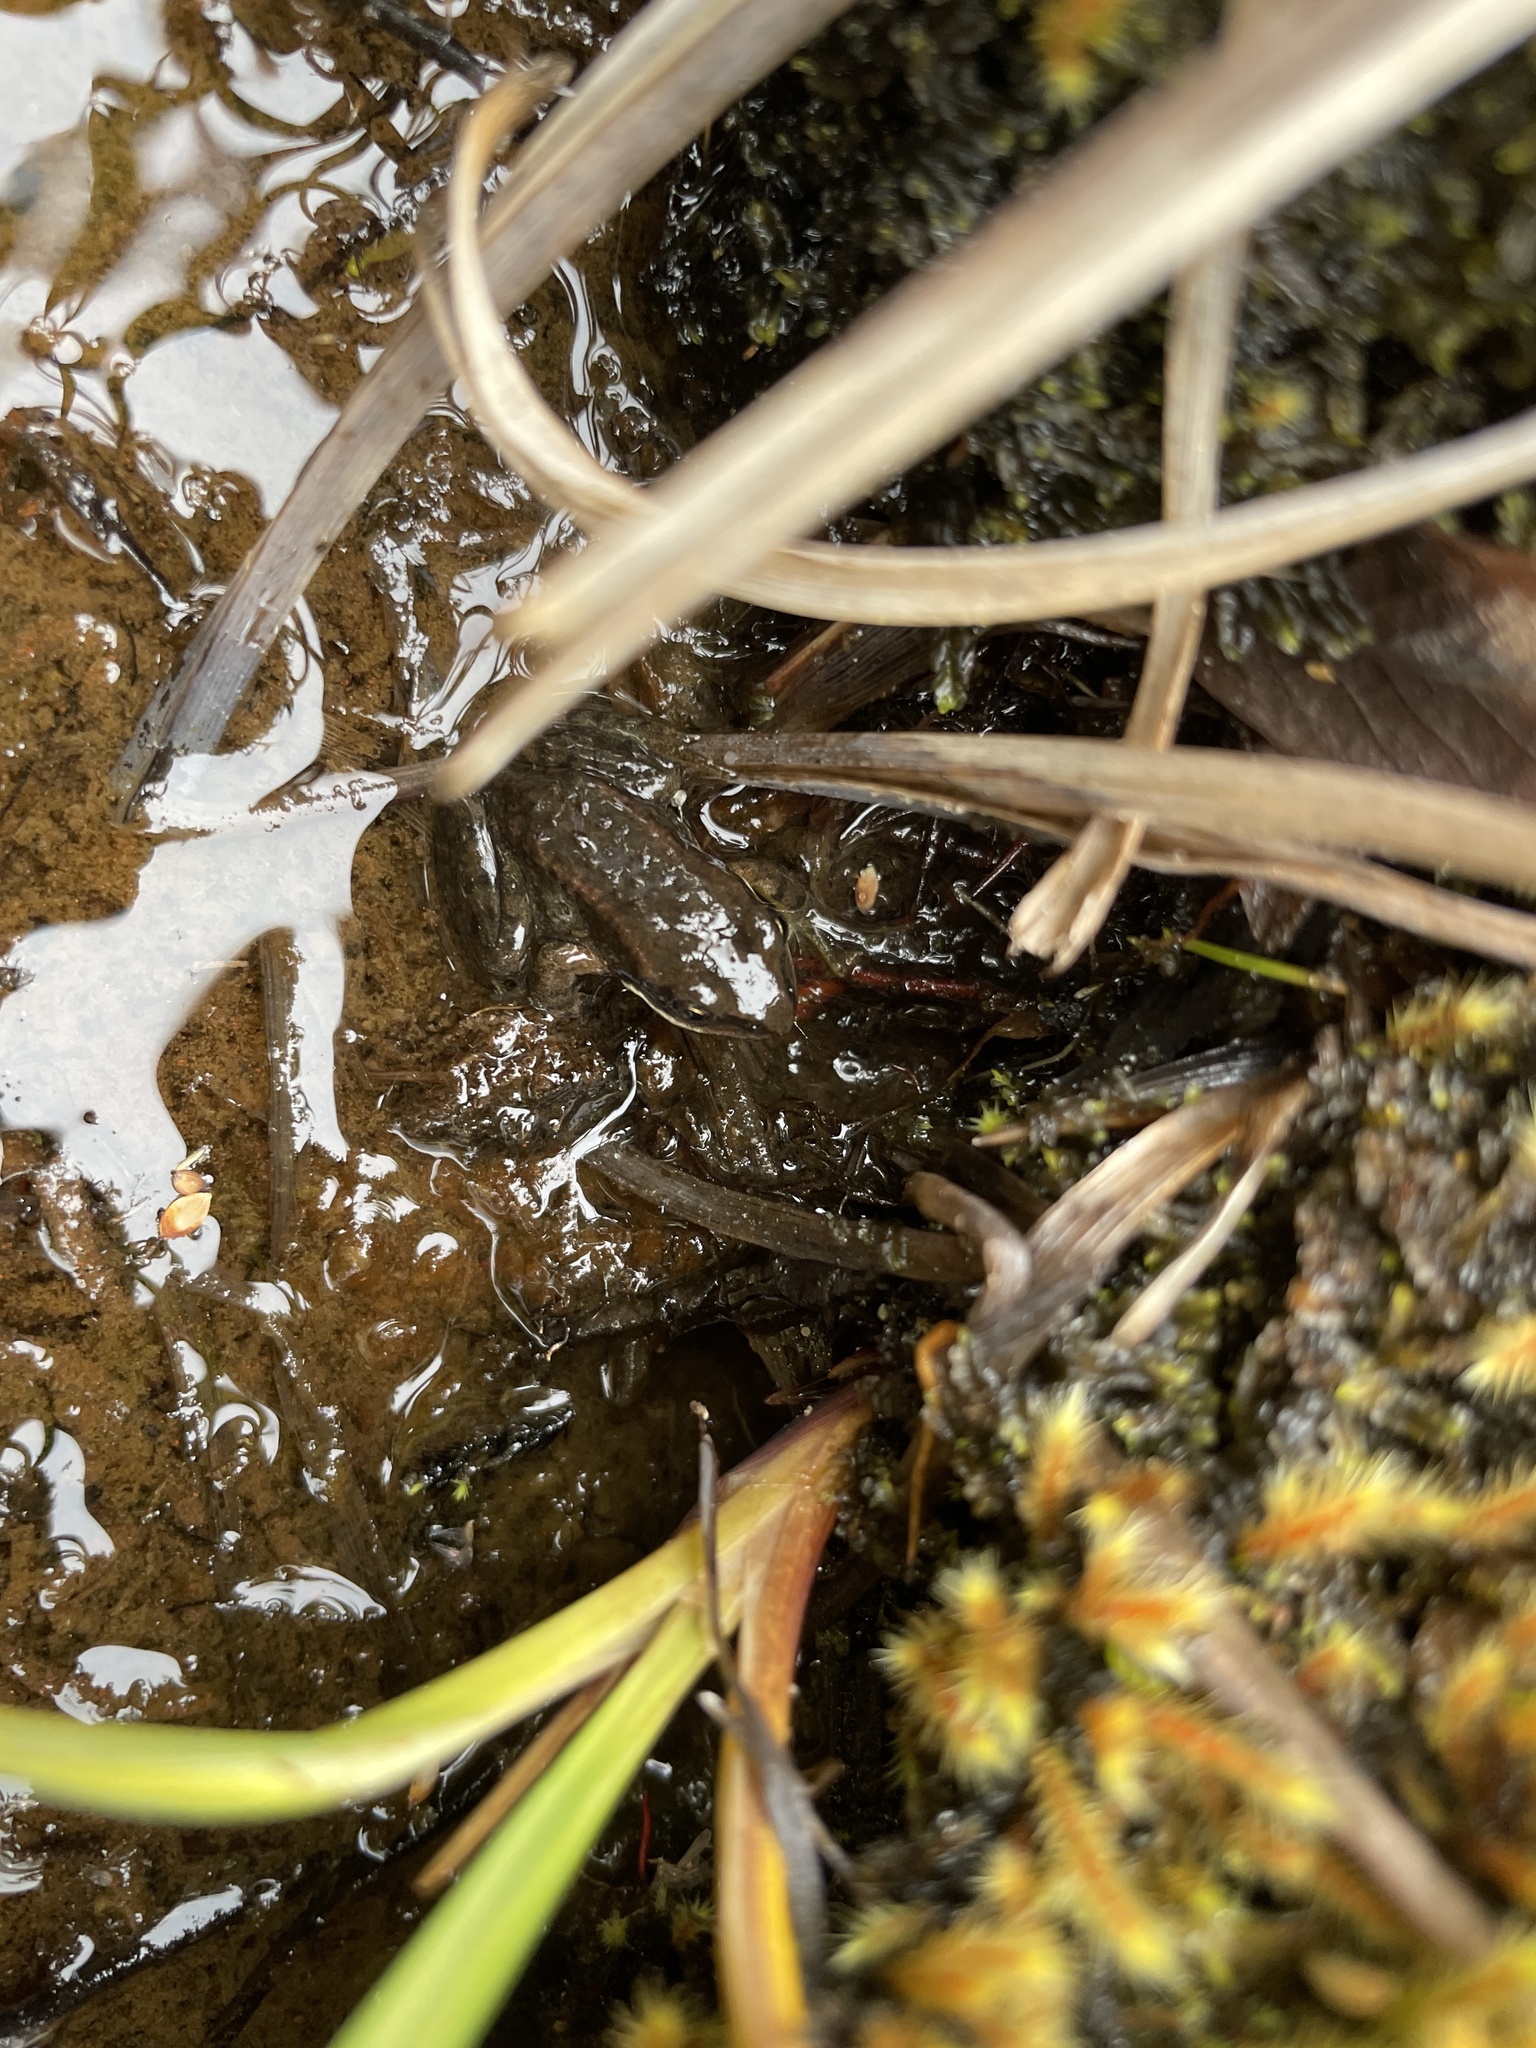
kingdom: Animalia
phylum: Chordata
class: Amphibia
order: Anura
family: Ranidae
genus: Rana
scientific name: Rana cascadae
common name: Cascades frog
